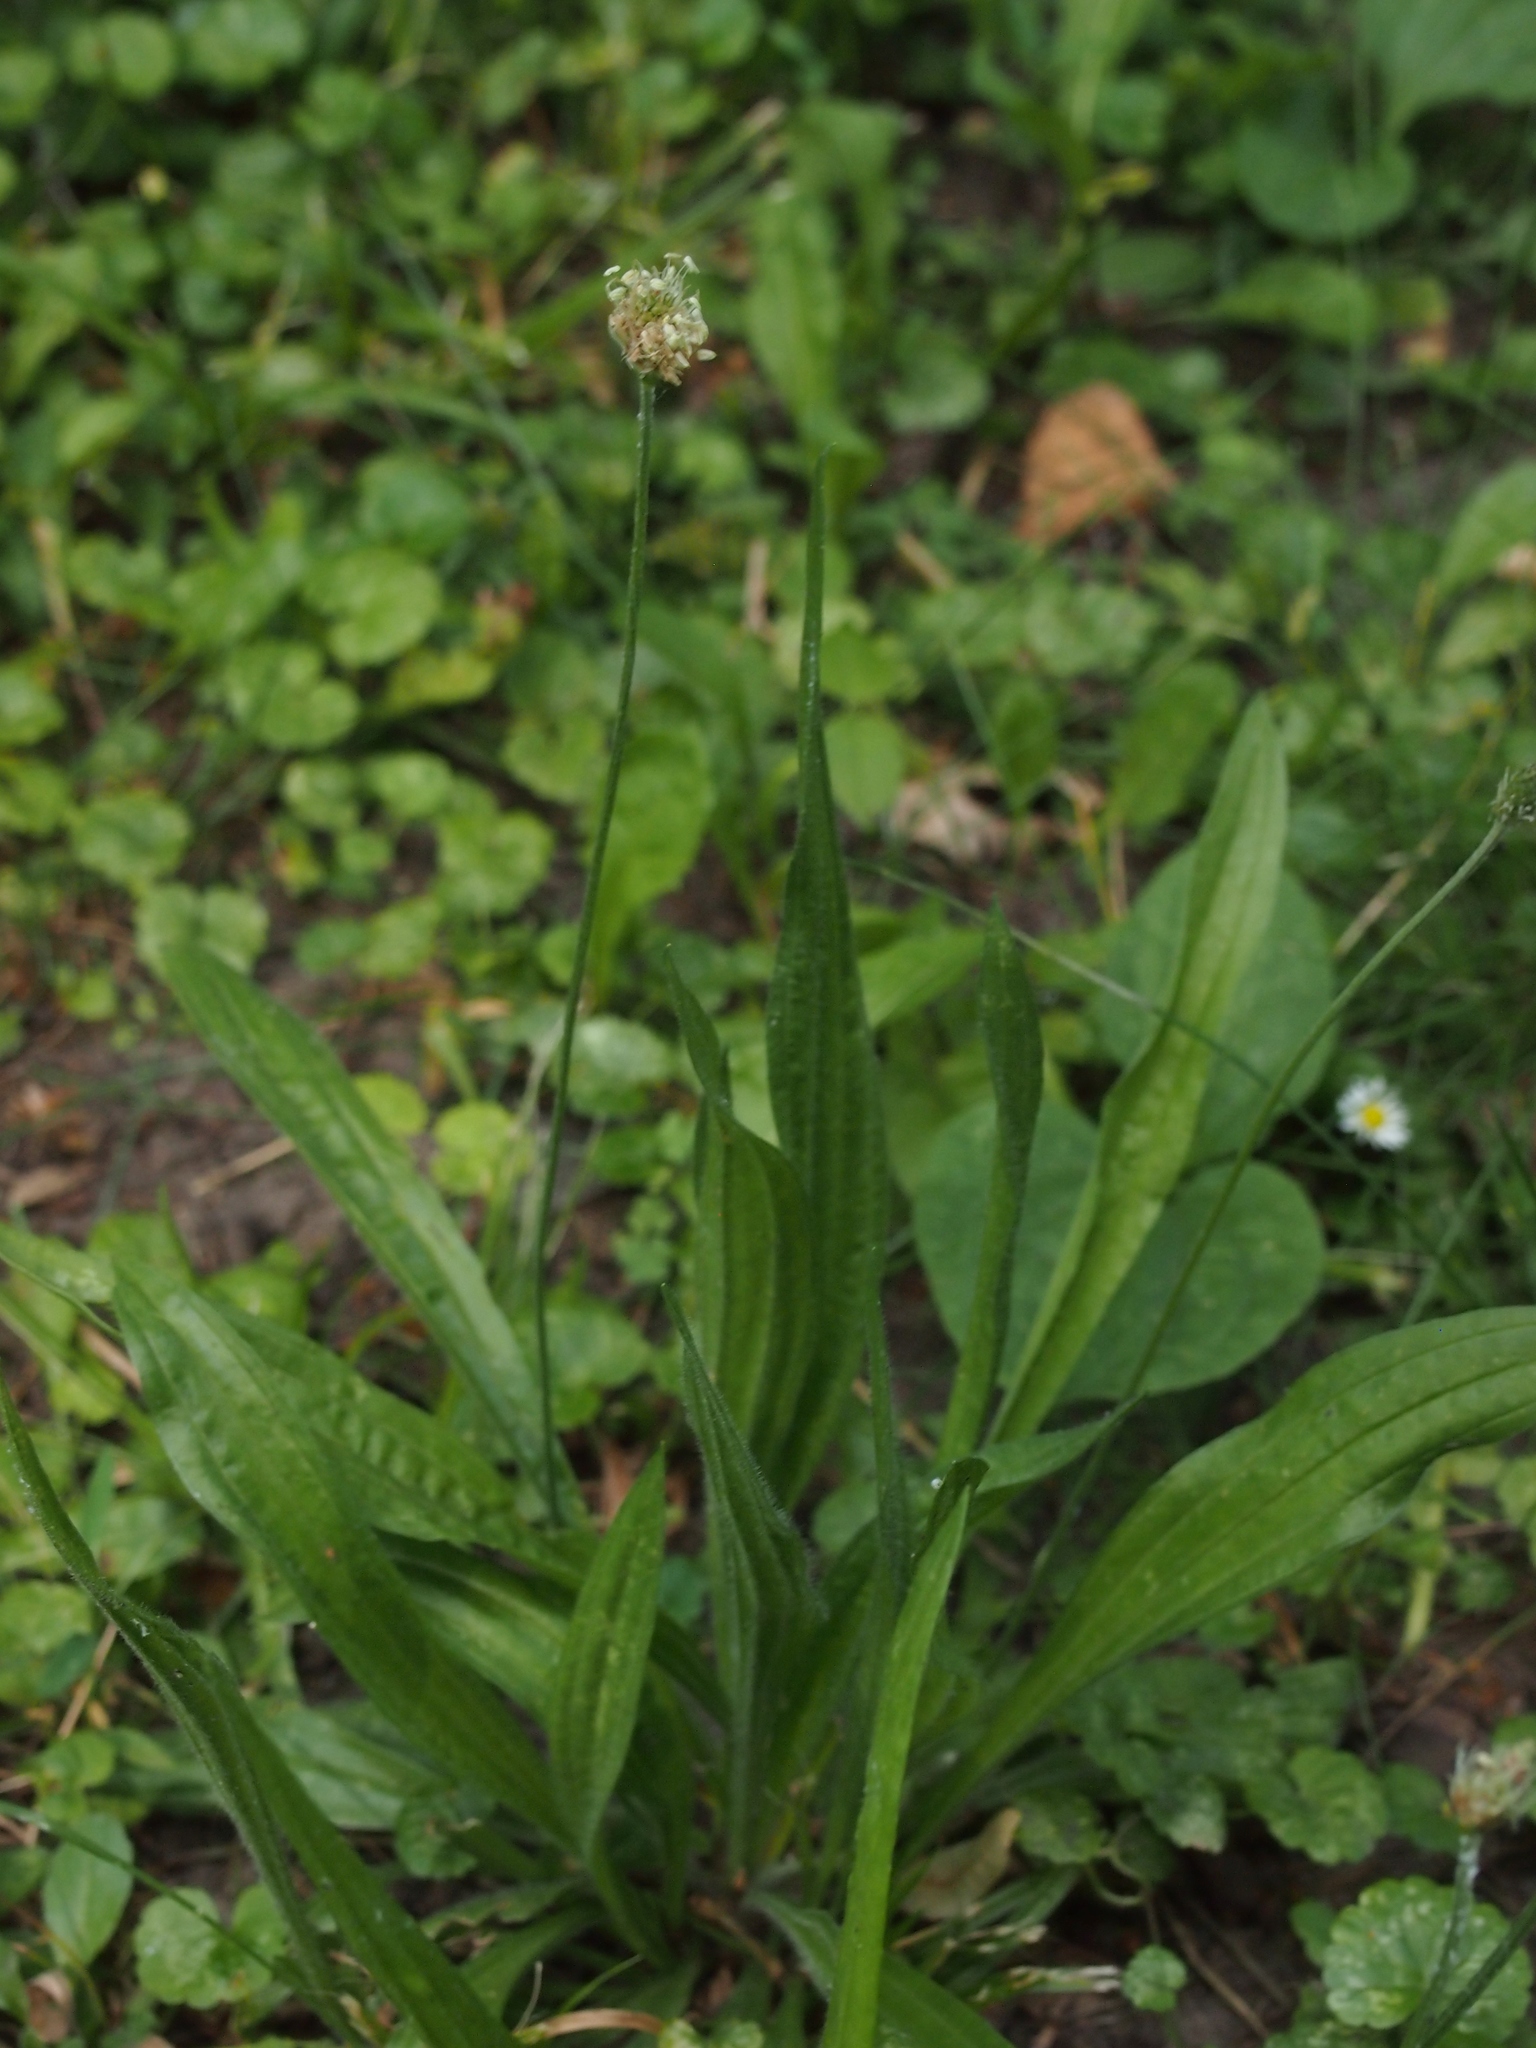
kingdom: Plantae
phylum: Tracheophyta
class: Magnoliopsida
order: Lamiales
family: Plantaginaceae
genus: Plantago
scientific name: Plantago lanceolata
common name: Ribwort plantain
